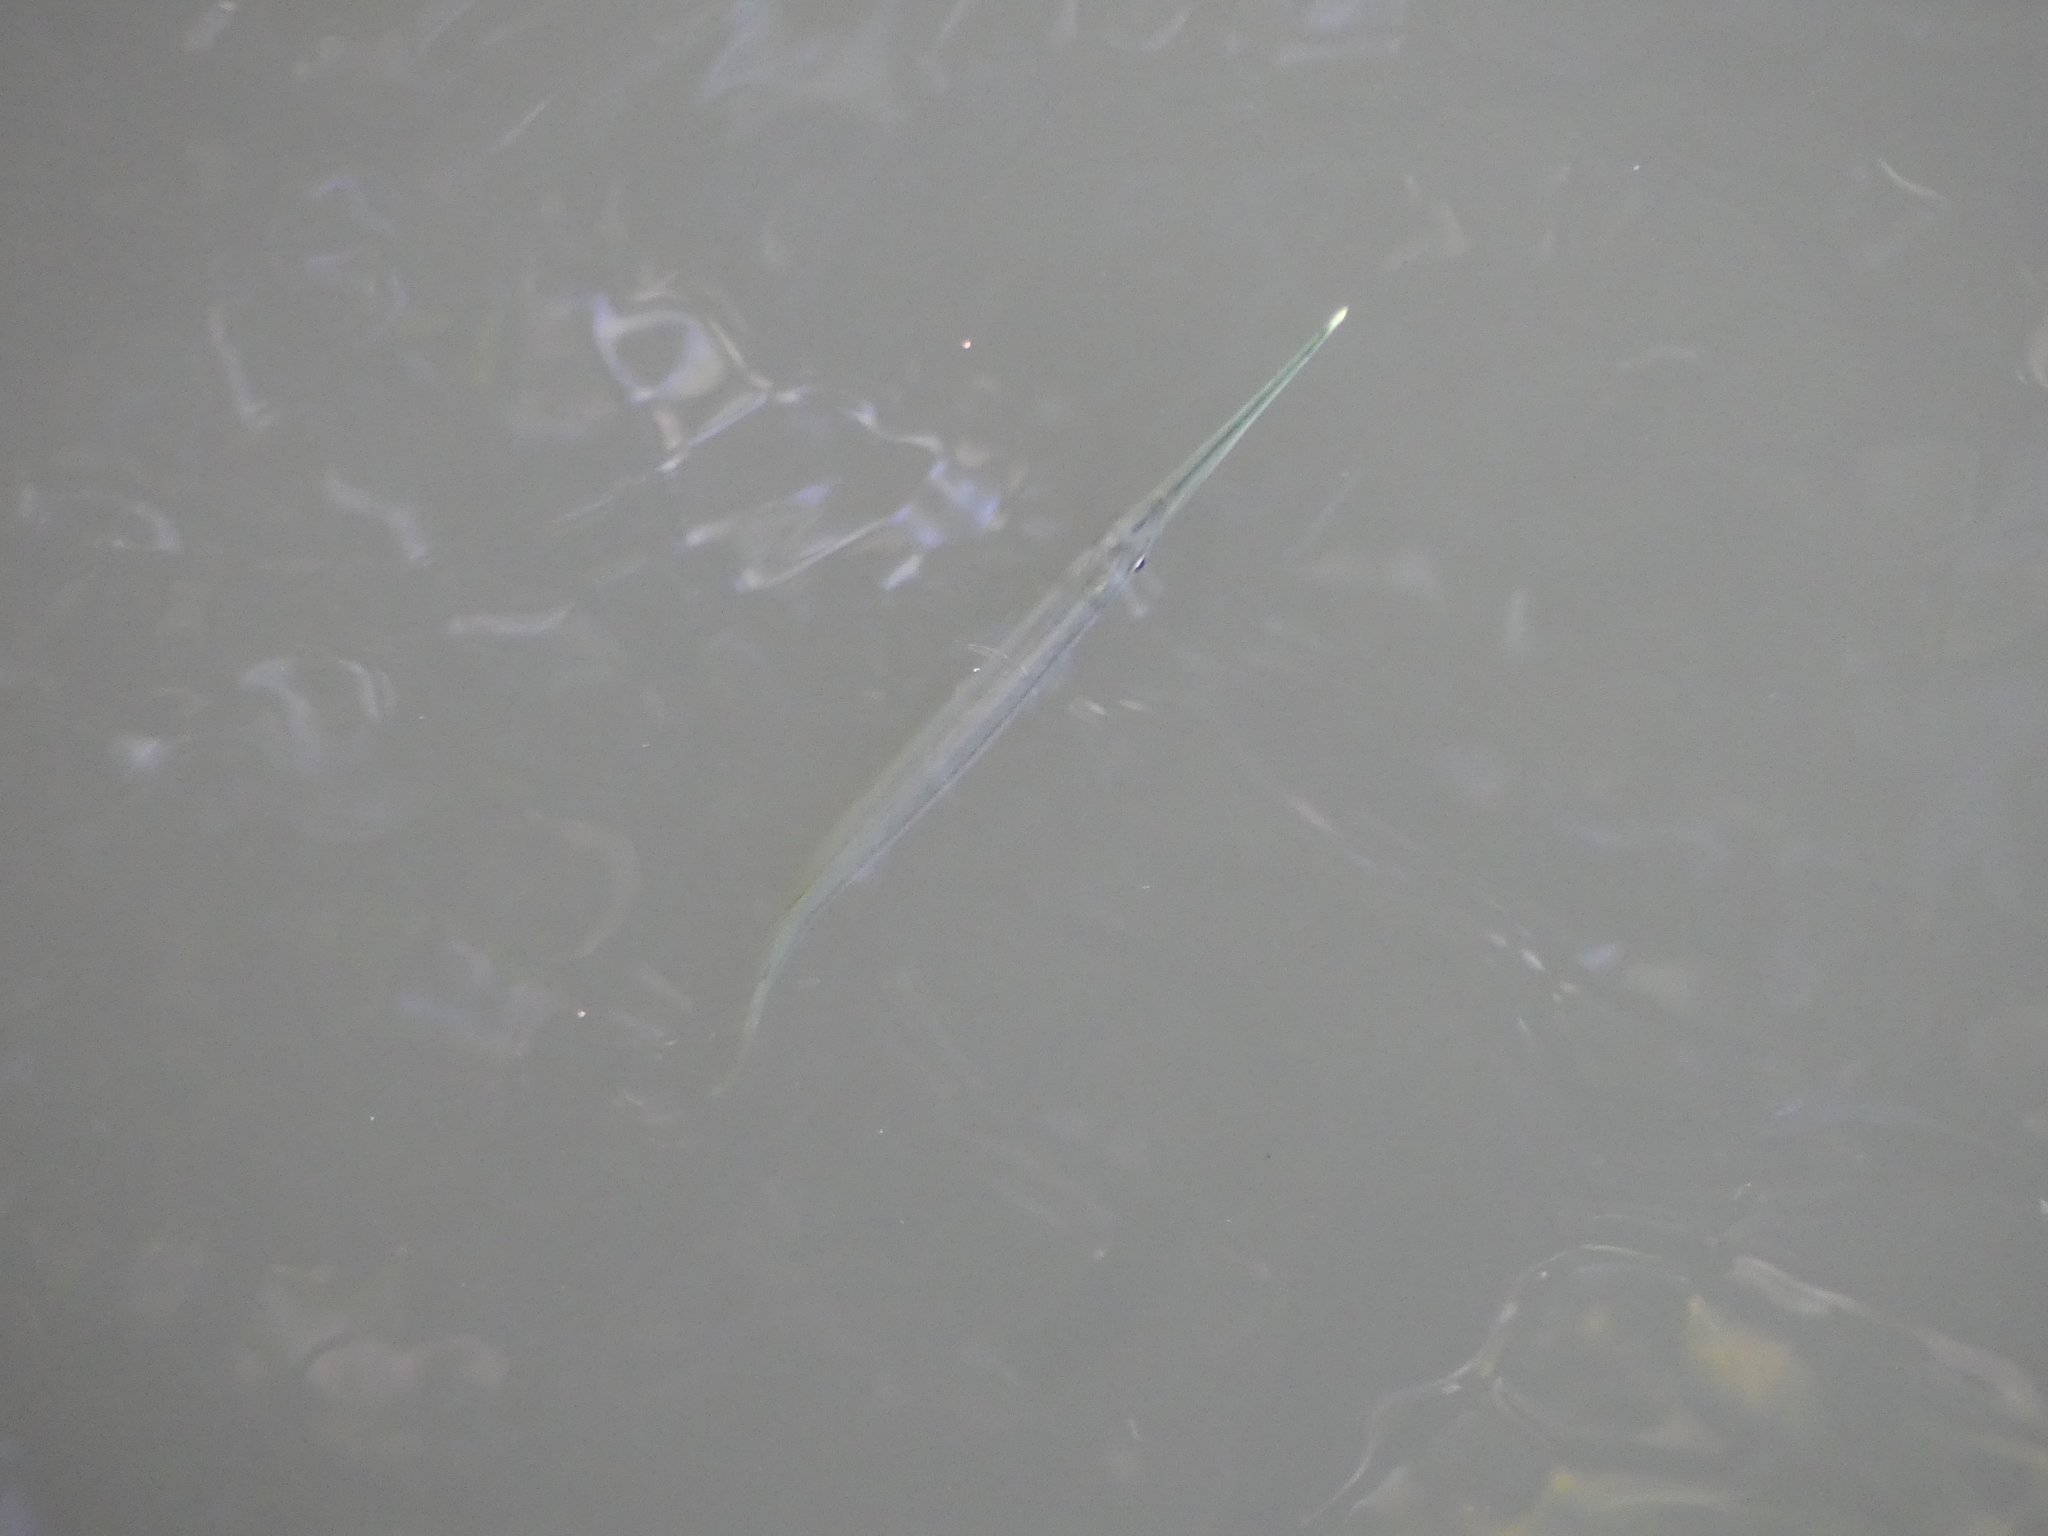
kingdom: Animalia
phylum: Chordata
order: Beloniformes
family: Zenarchopteridae
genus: Zenarchopterus
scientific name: Zenarchopterus buffonis
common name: Buffon's river-garfish
